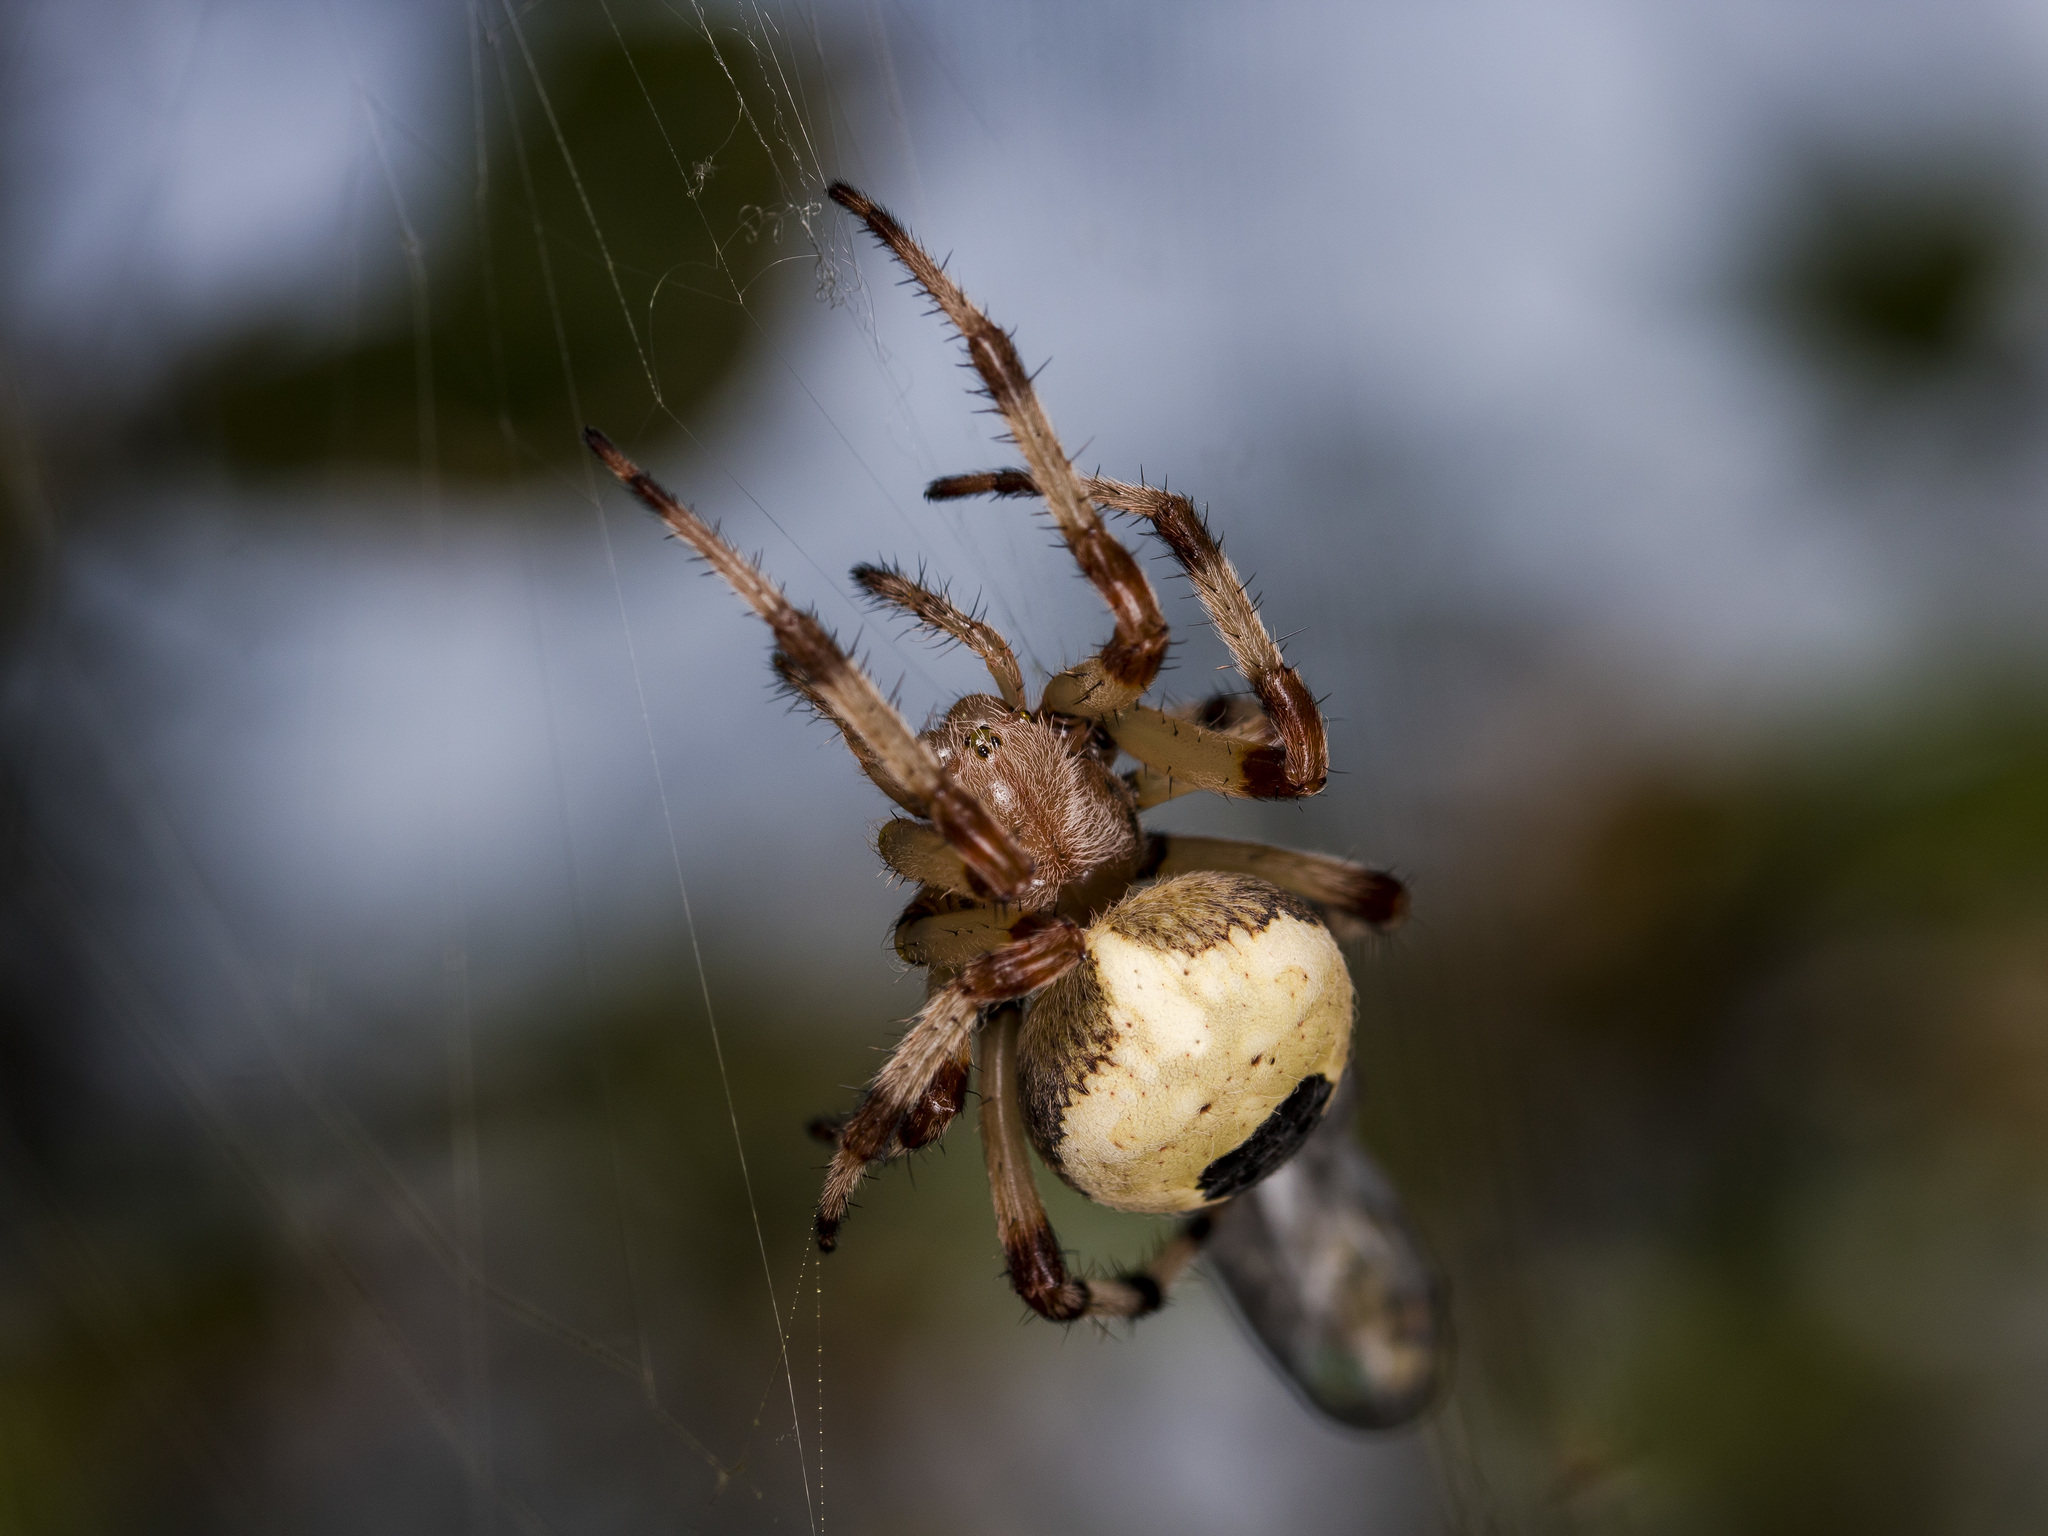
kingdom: Animalia
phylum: Arthropoda
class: Arachnida
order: Araneae
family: Araneidae
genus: Araneus
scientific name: Araneus marmoreus
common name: Marbled orbweaver
